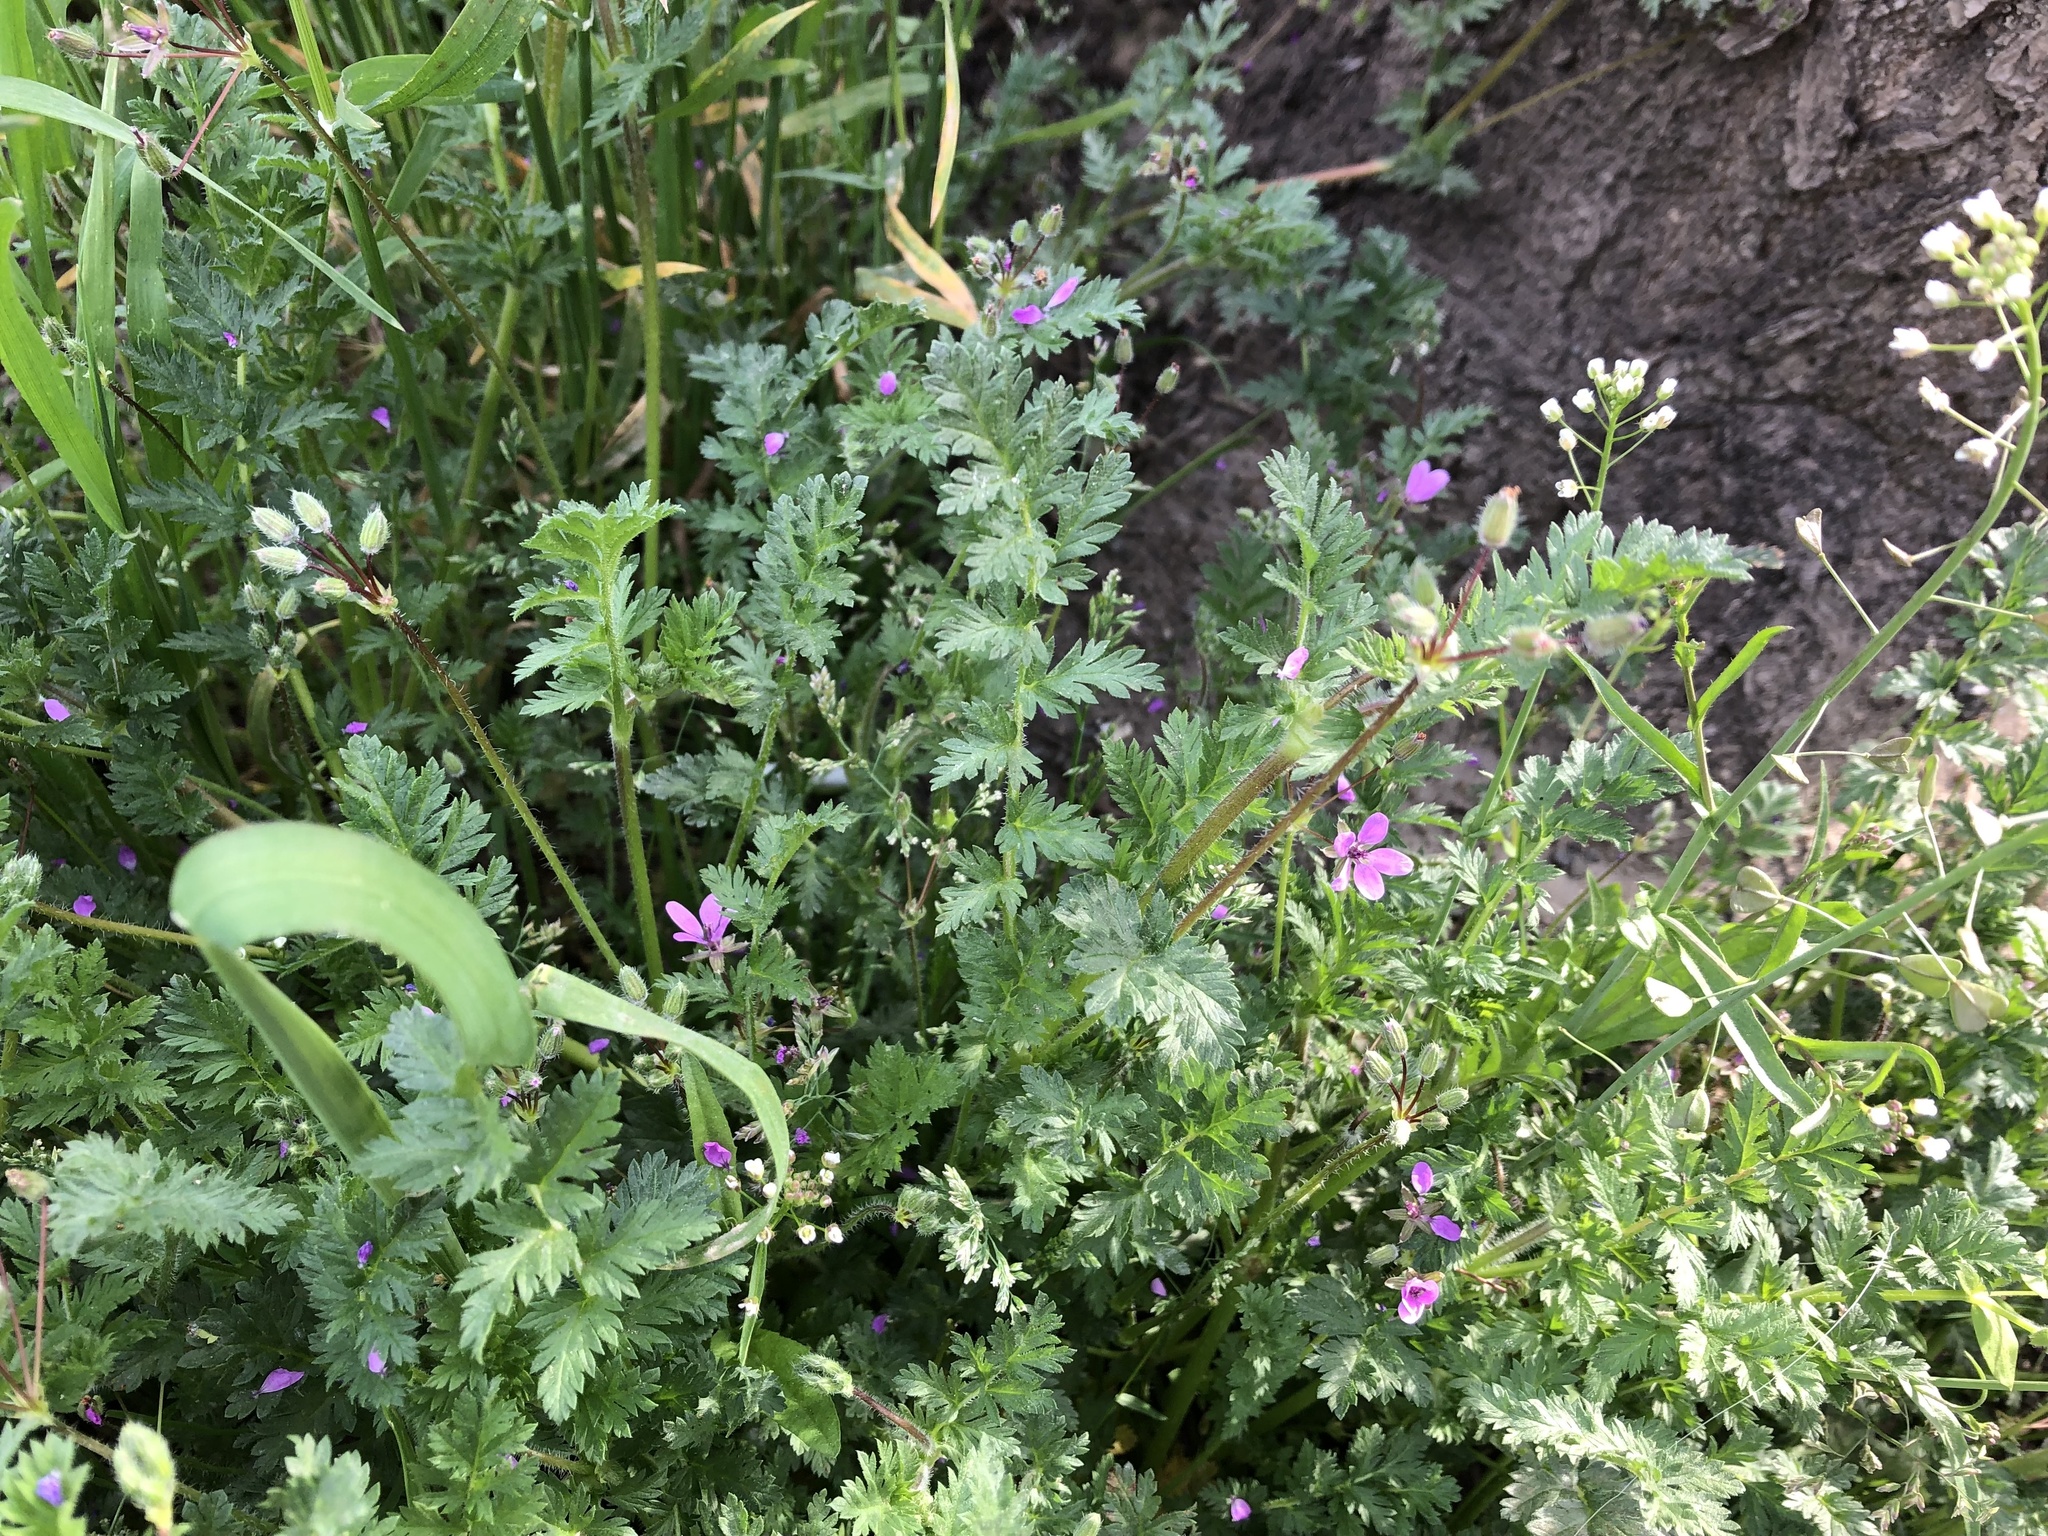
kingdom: Plantae
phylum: Tracheophyta
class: Magnoliopsida
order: Geraniales
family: Geraniaceae
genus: Erodium
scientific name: Erodium cicutarium
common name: Common stork's-bill
